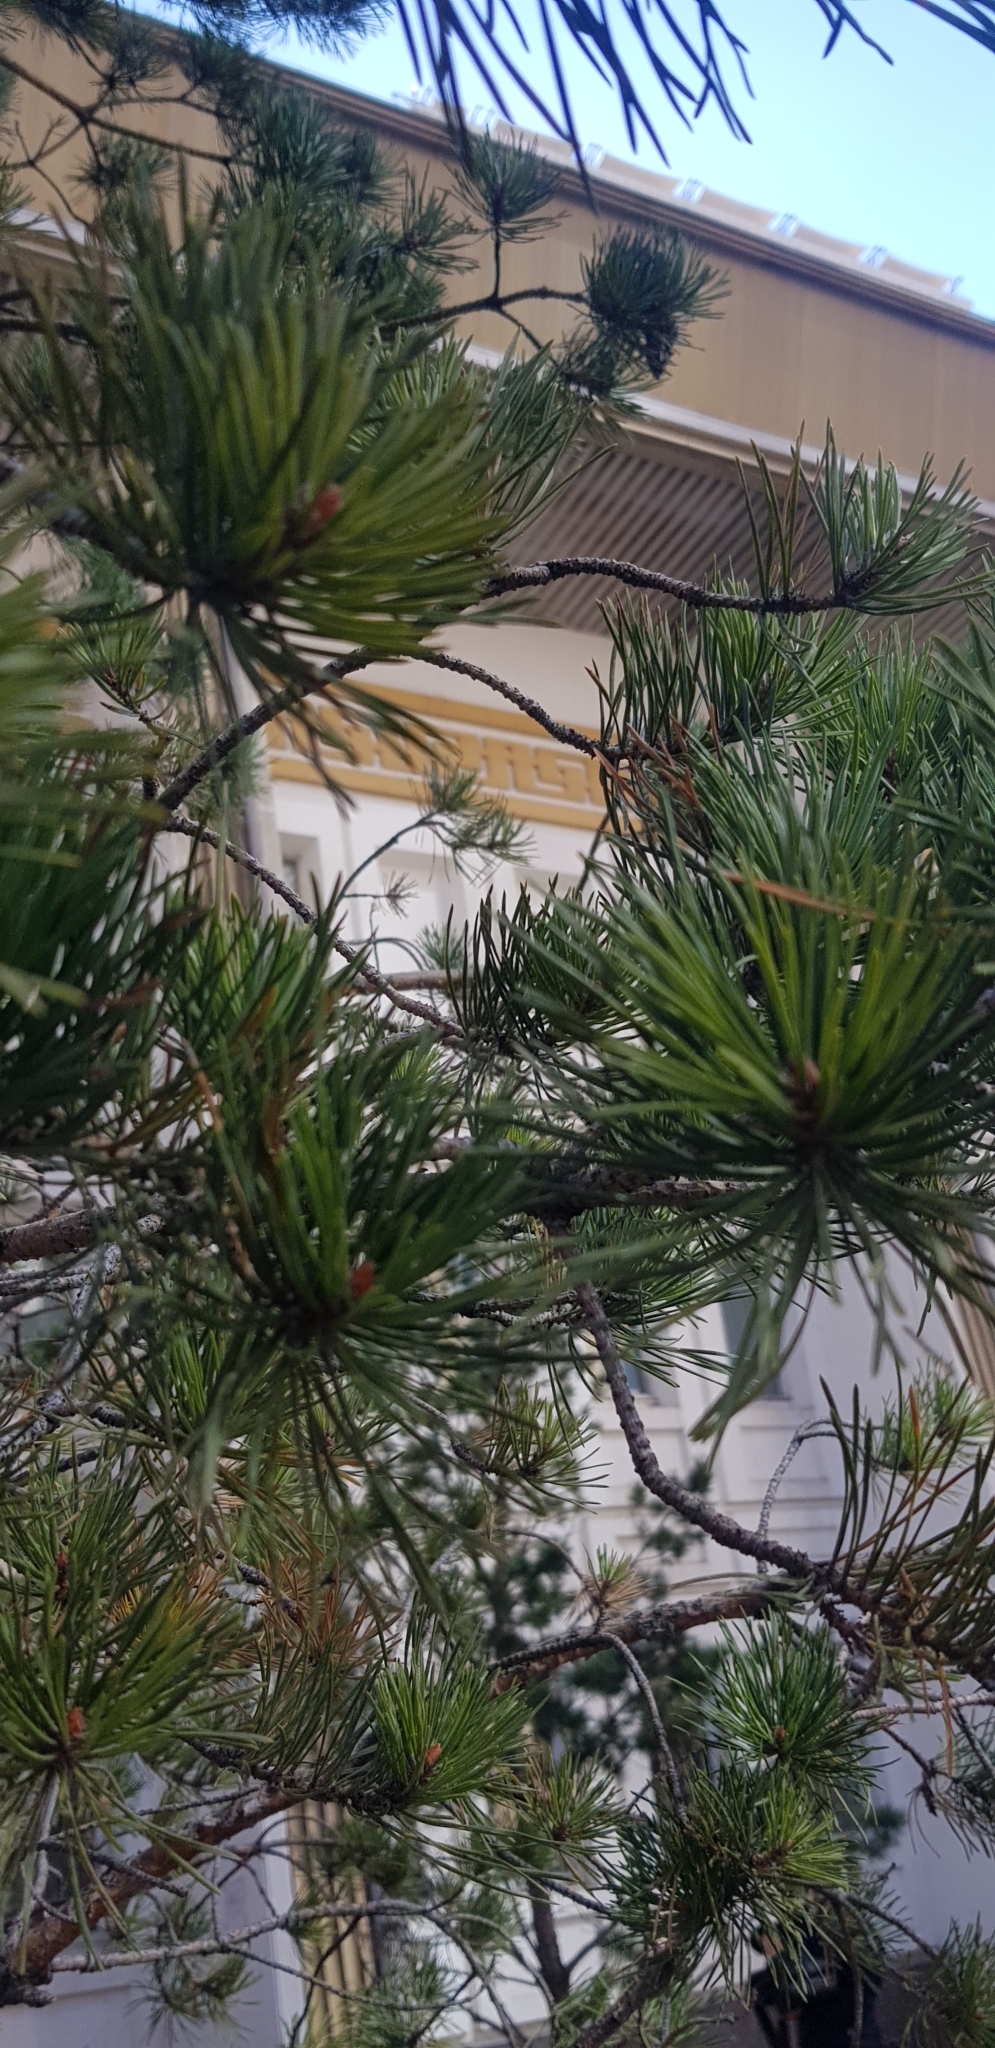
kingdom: Plantae
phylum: Tracheophyta
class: Pinopsida
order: Pinales
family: Pinaceae
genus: Pinus
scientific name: Pinus sylvestris
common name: Scots pine
